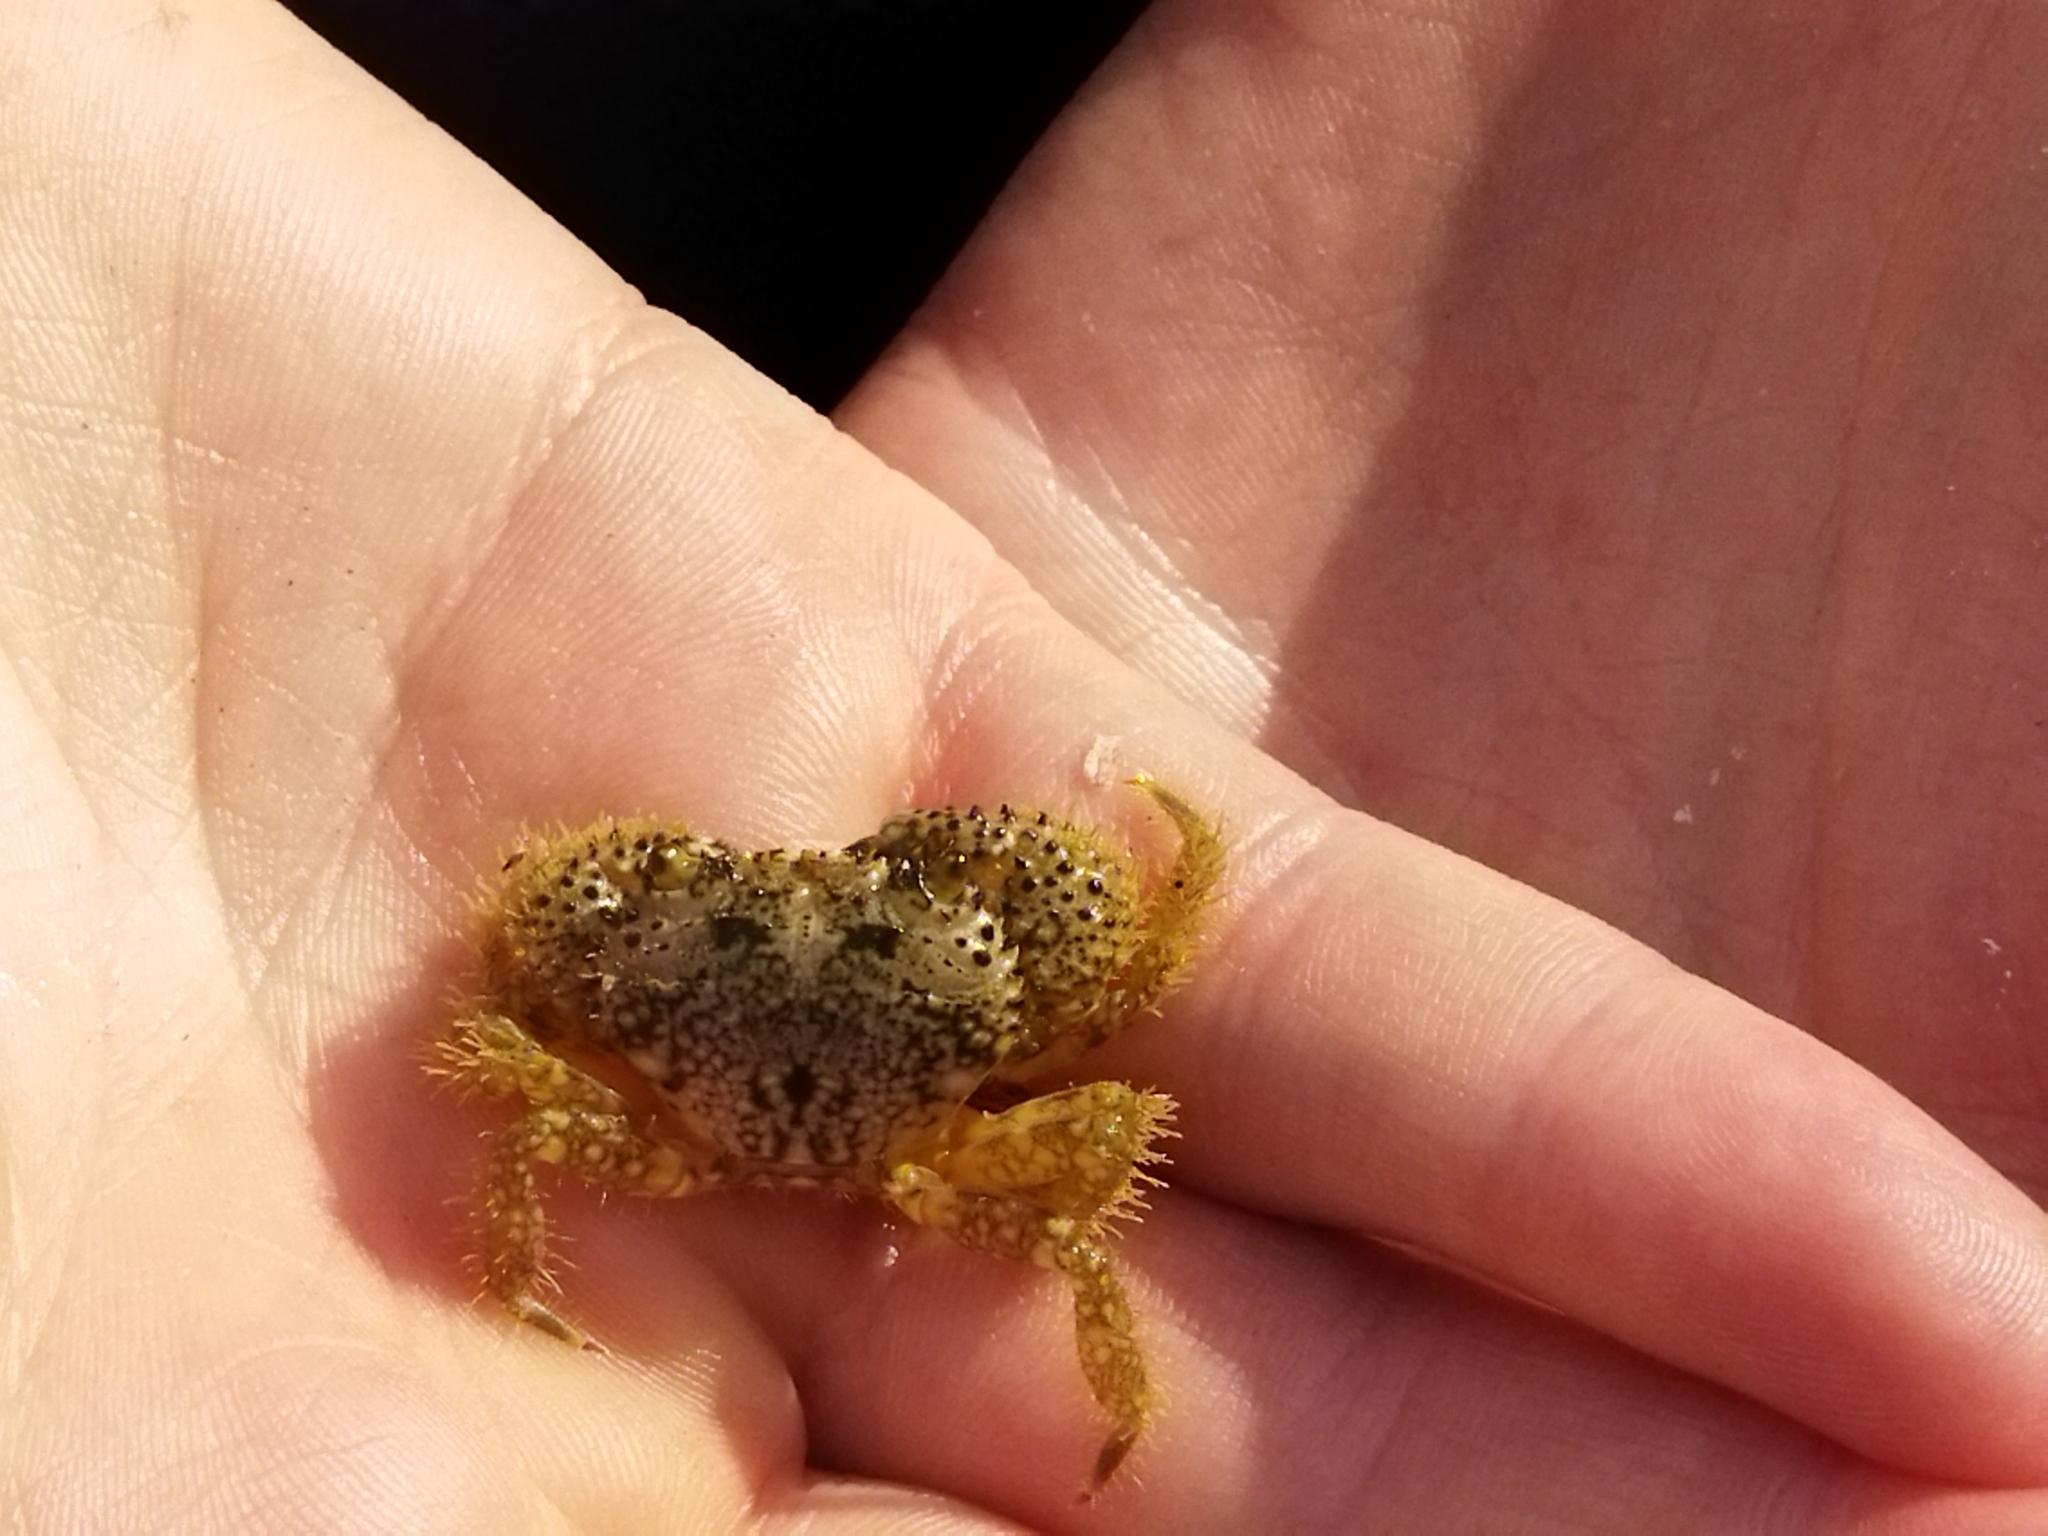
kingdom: Animalia
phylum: Arthropoda
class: Malacostraca
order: Decapoda
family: Eriphiidae
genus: Eriphia
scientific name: Eriphia verrucosa
